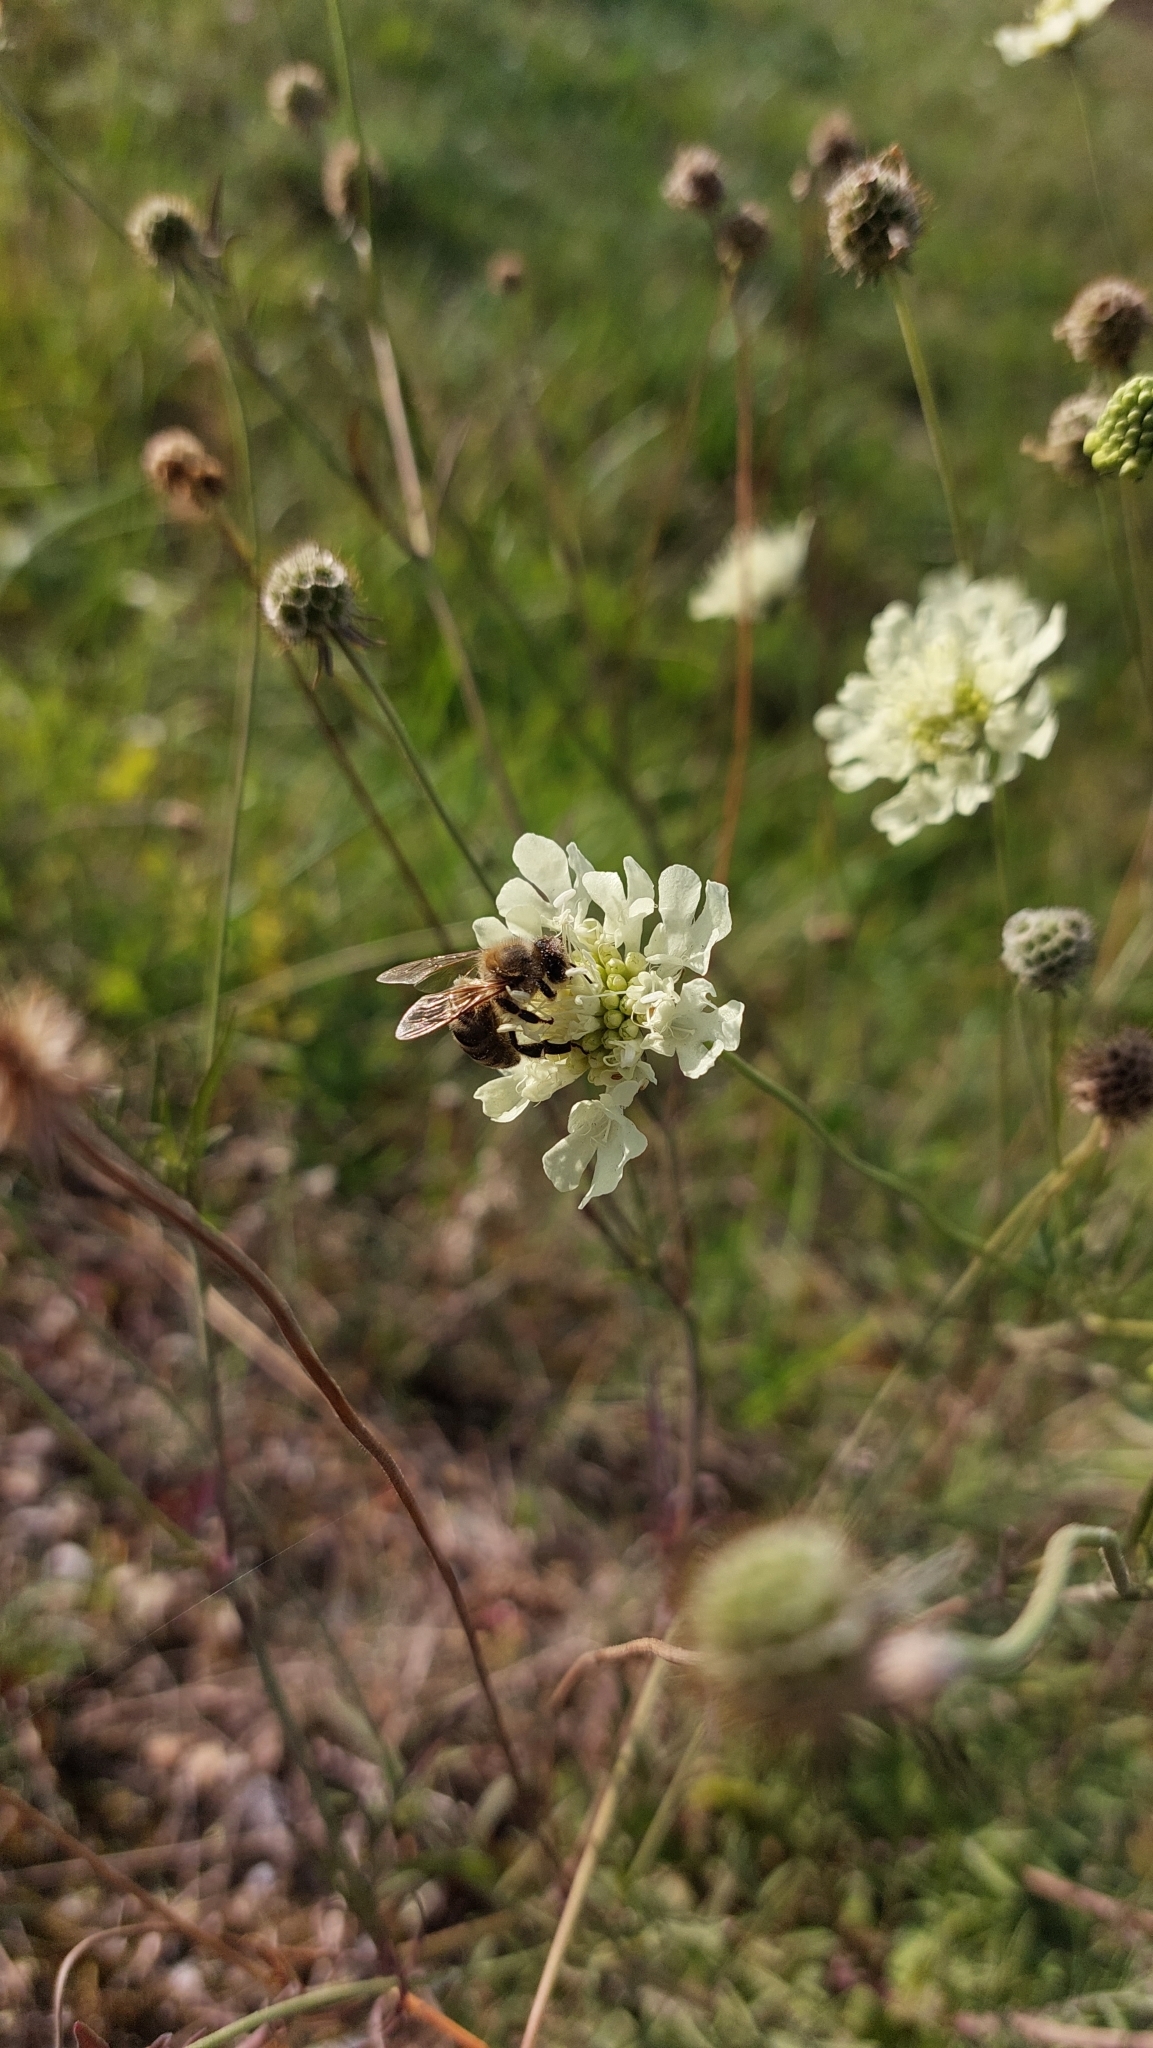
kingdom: Animalia
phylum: Arthropoda
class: Insecta
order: Hymenoptera
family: Apidae
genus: Apis
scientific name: Apis mellifera
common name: Honey bee
